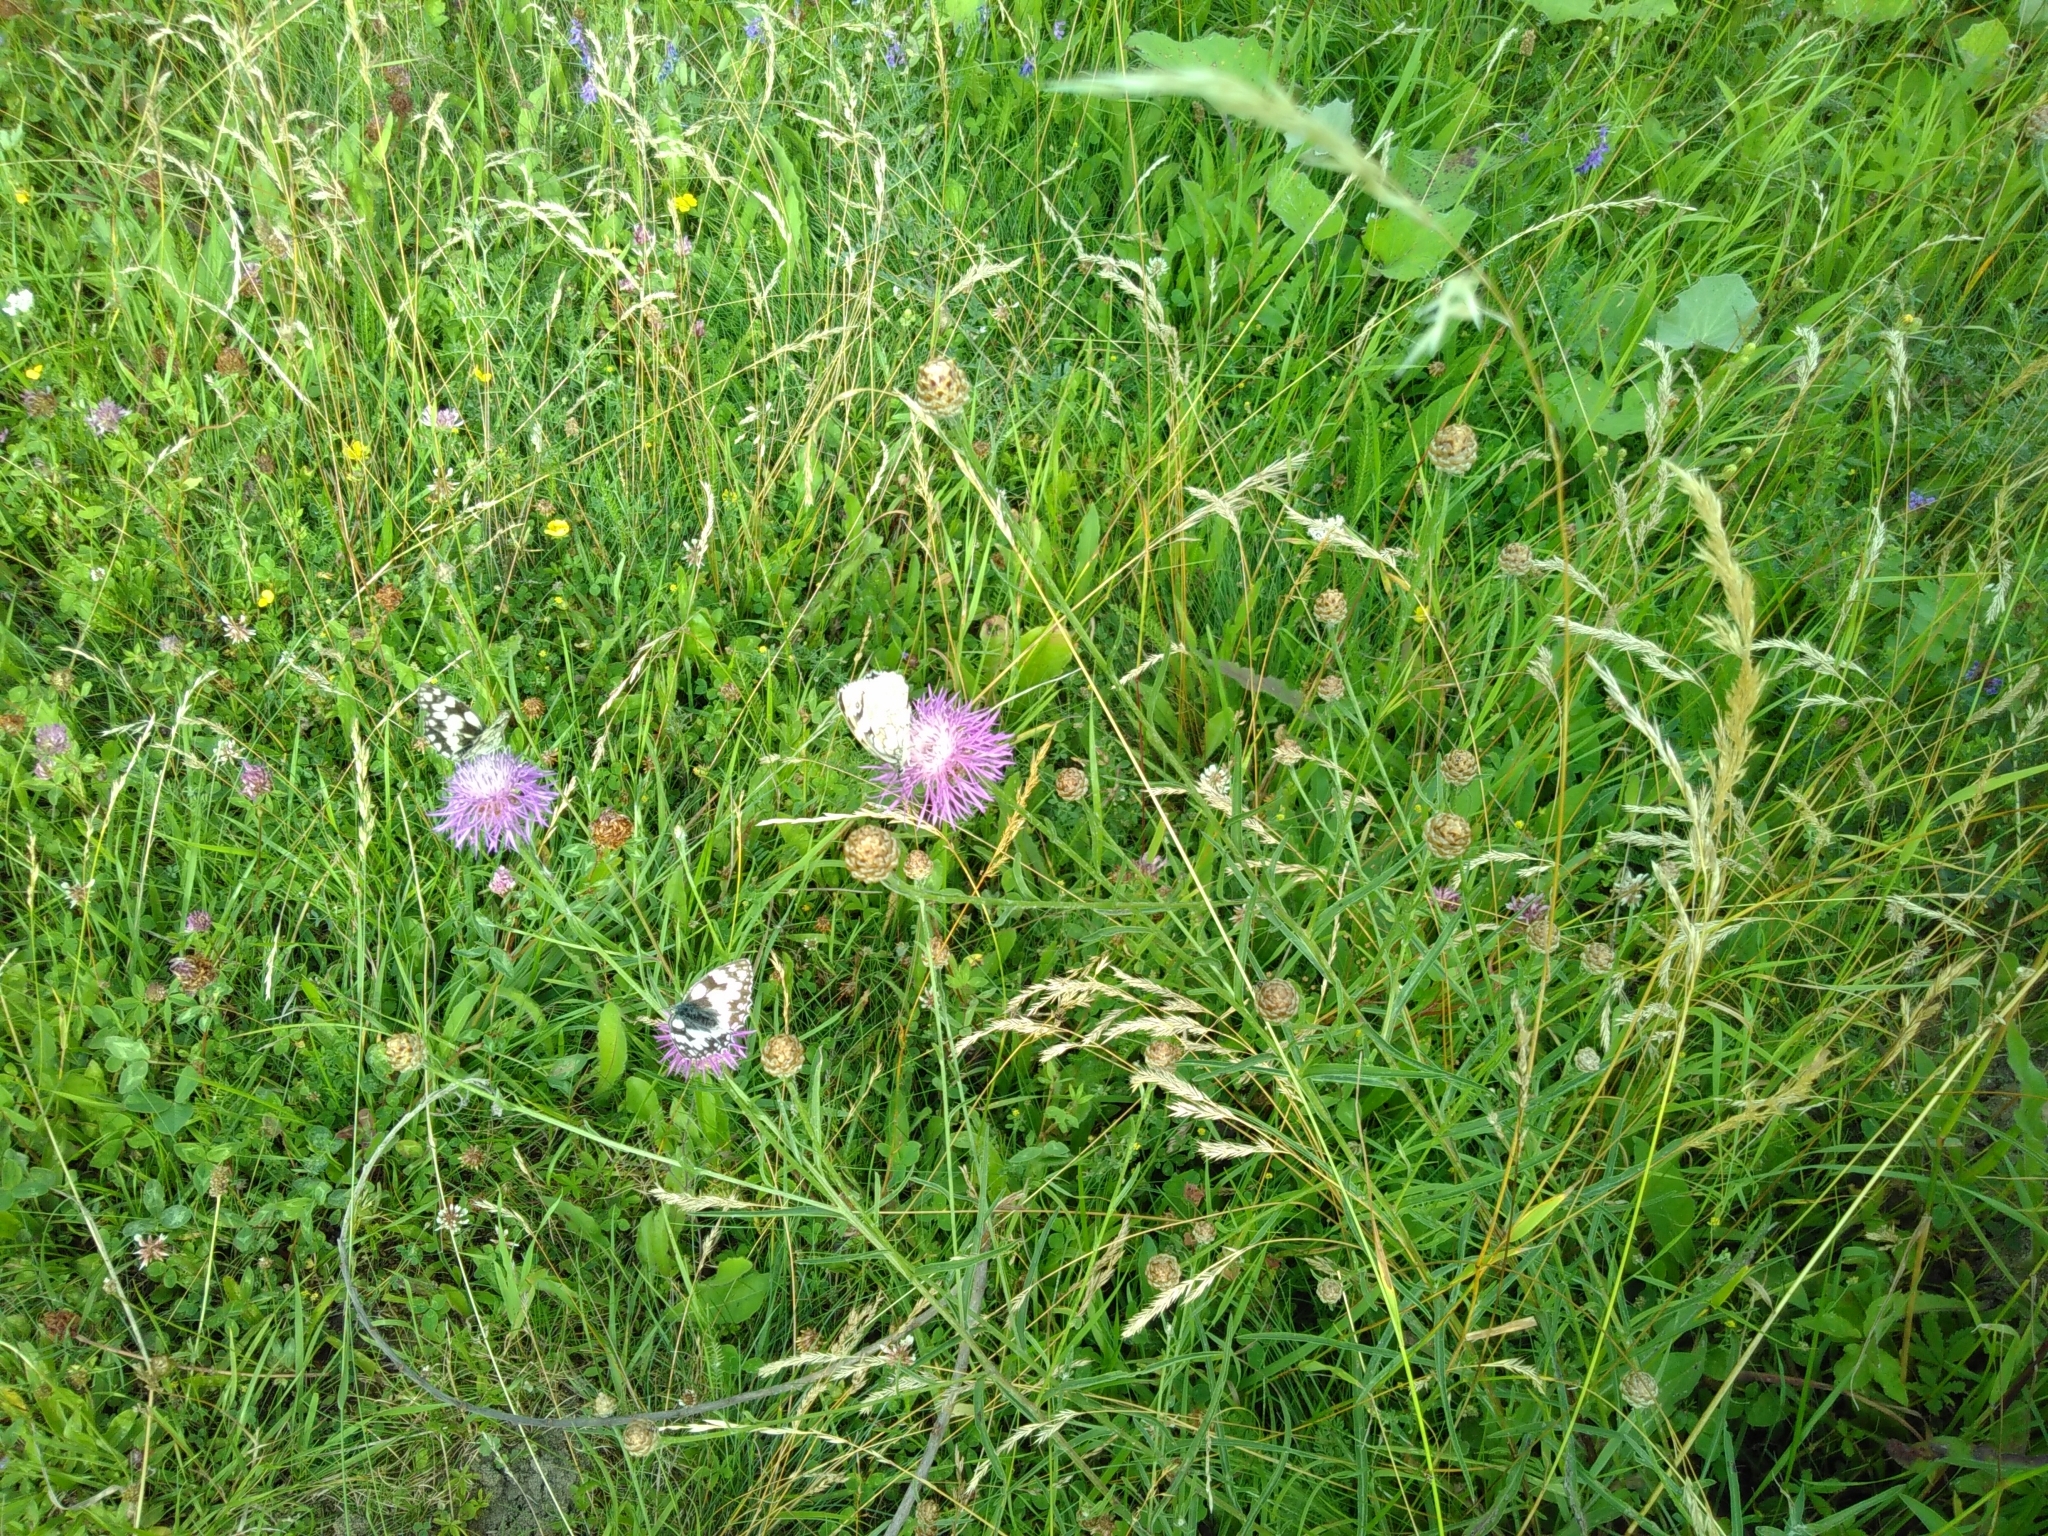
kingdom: Plantae
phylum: Tracheophyta
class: Magnoliopsida
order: Asterales
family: Asteraceae
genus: Centaurea
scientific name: Centaurea jacea
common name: Brown knapweed
